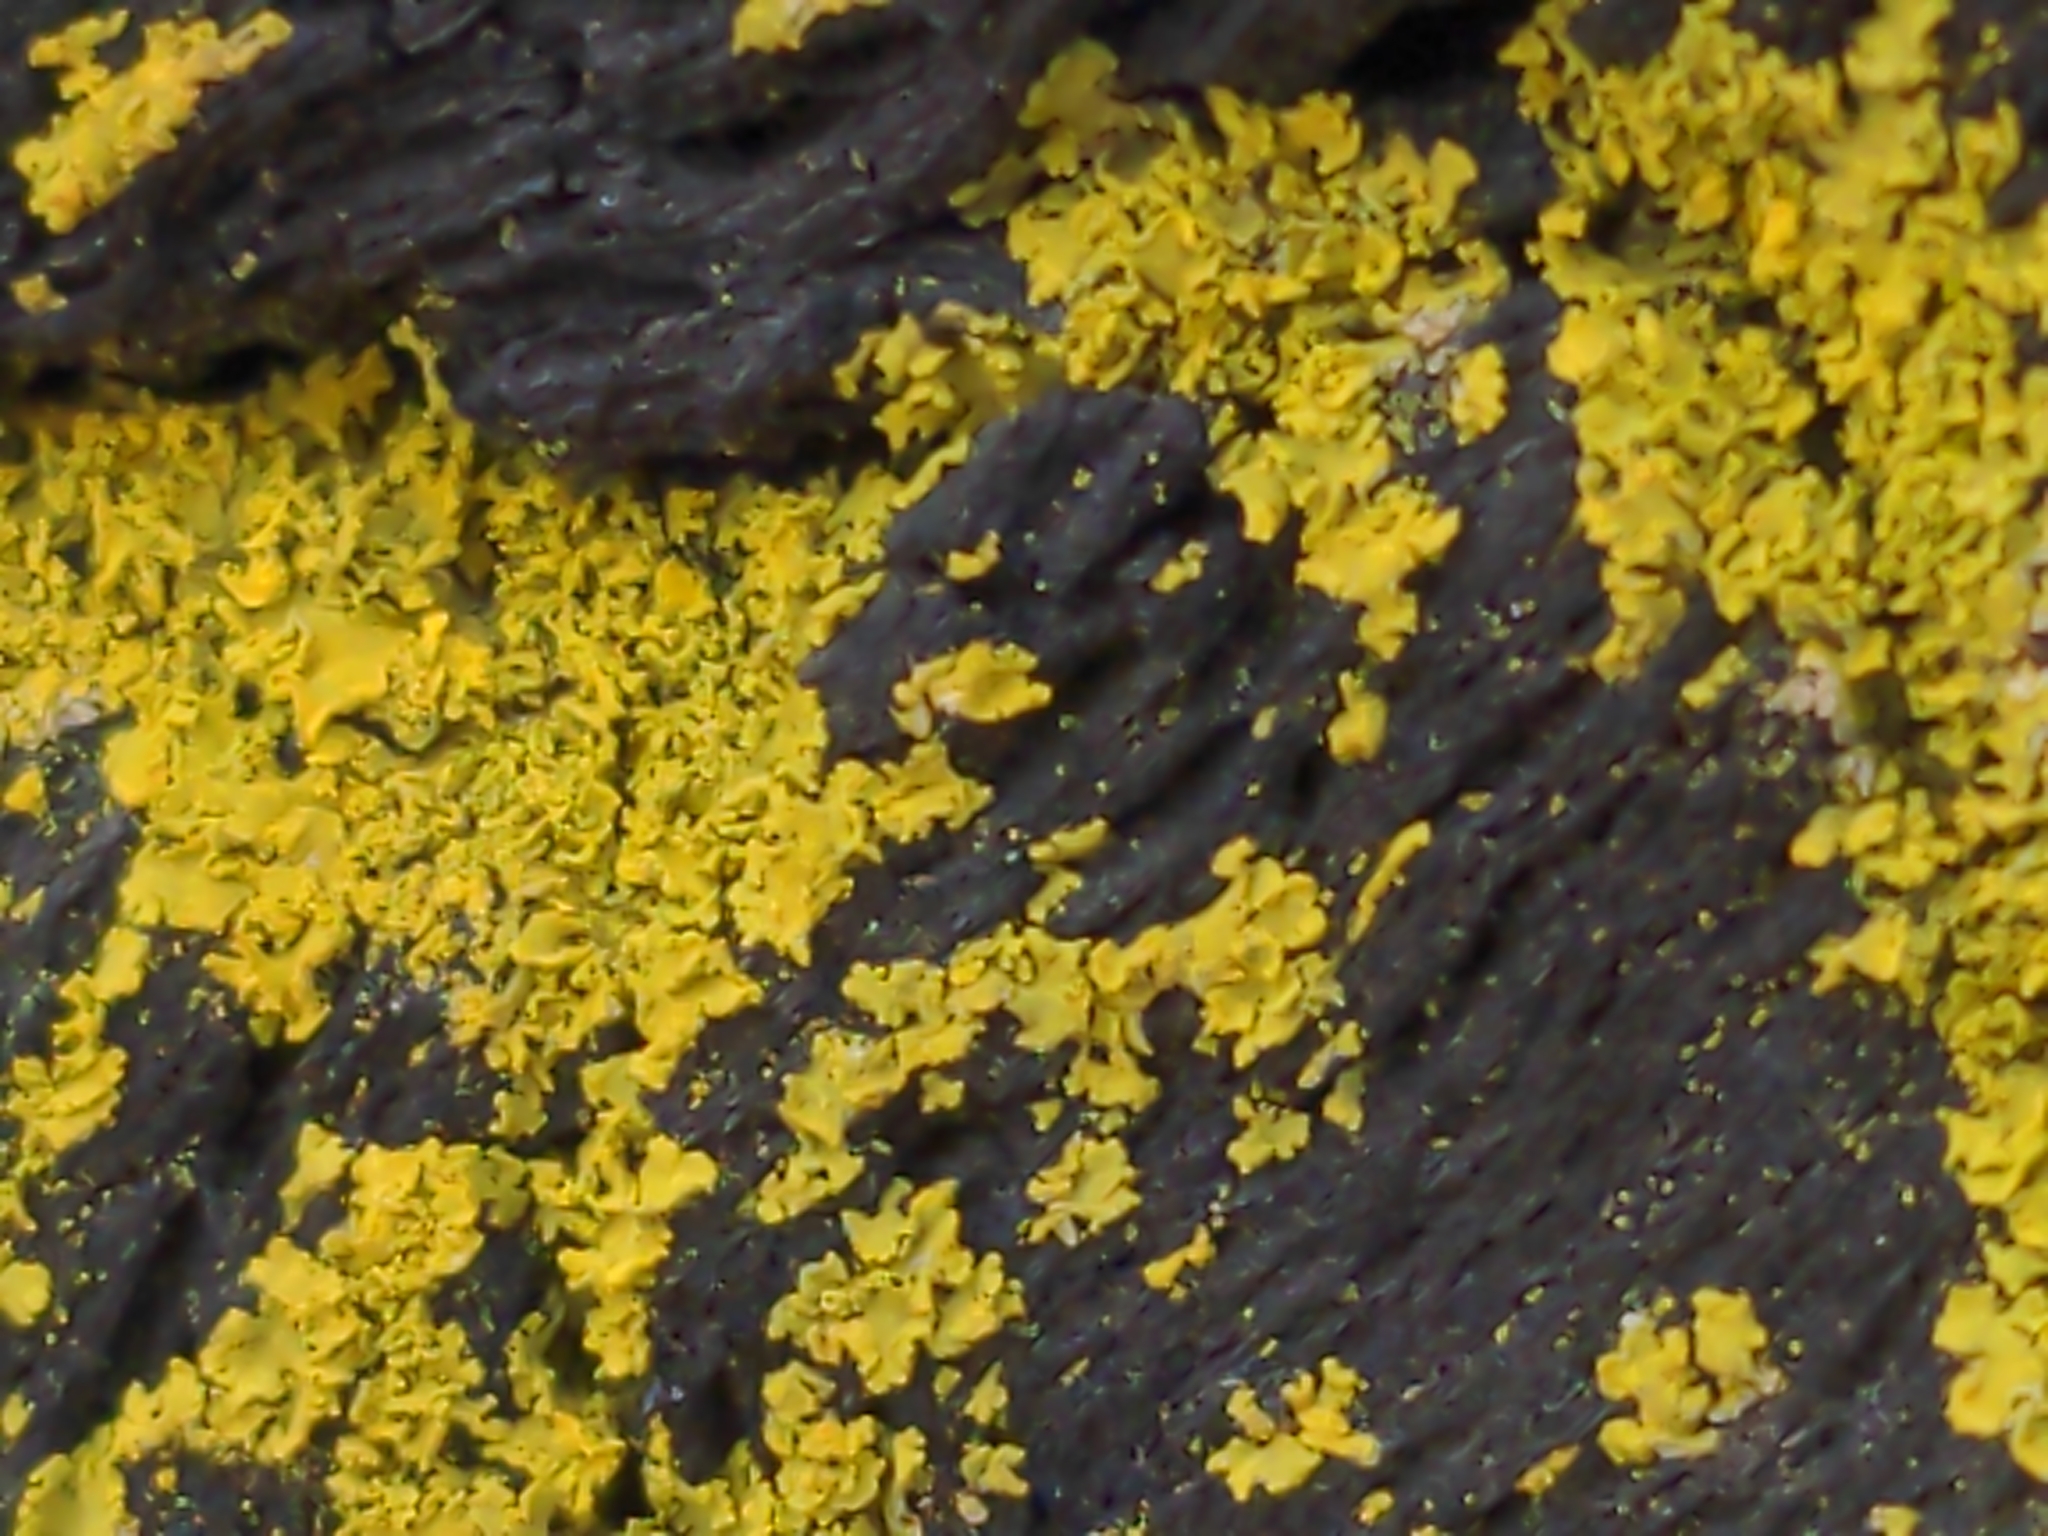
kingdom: Fungi
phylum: Ascomycota
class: Candelariomycetes
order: Candelariales
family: Candelariaceae
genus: Candelaria
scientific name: Candelaria concolor
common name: Candleflame lichen
